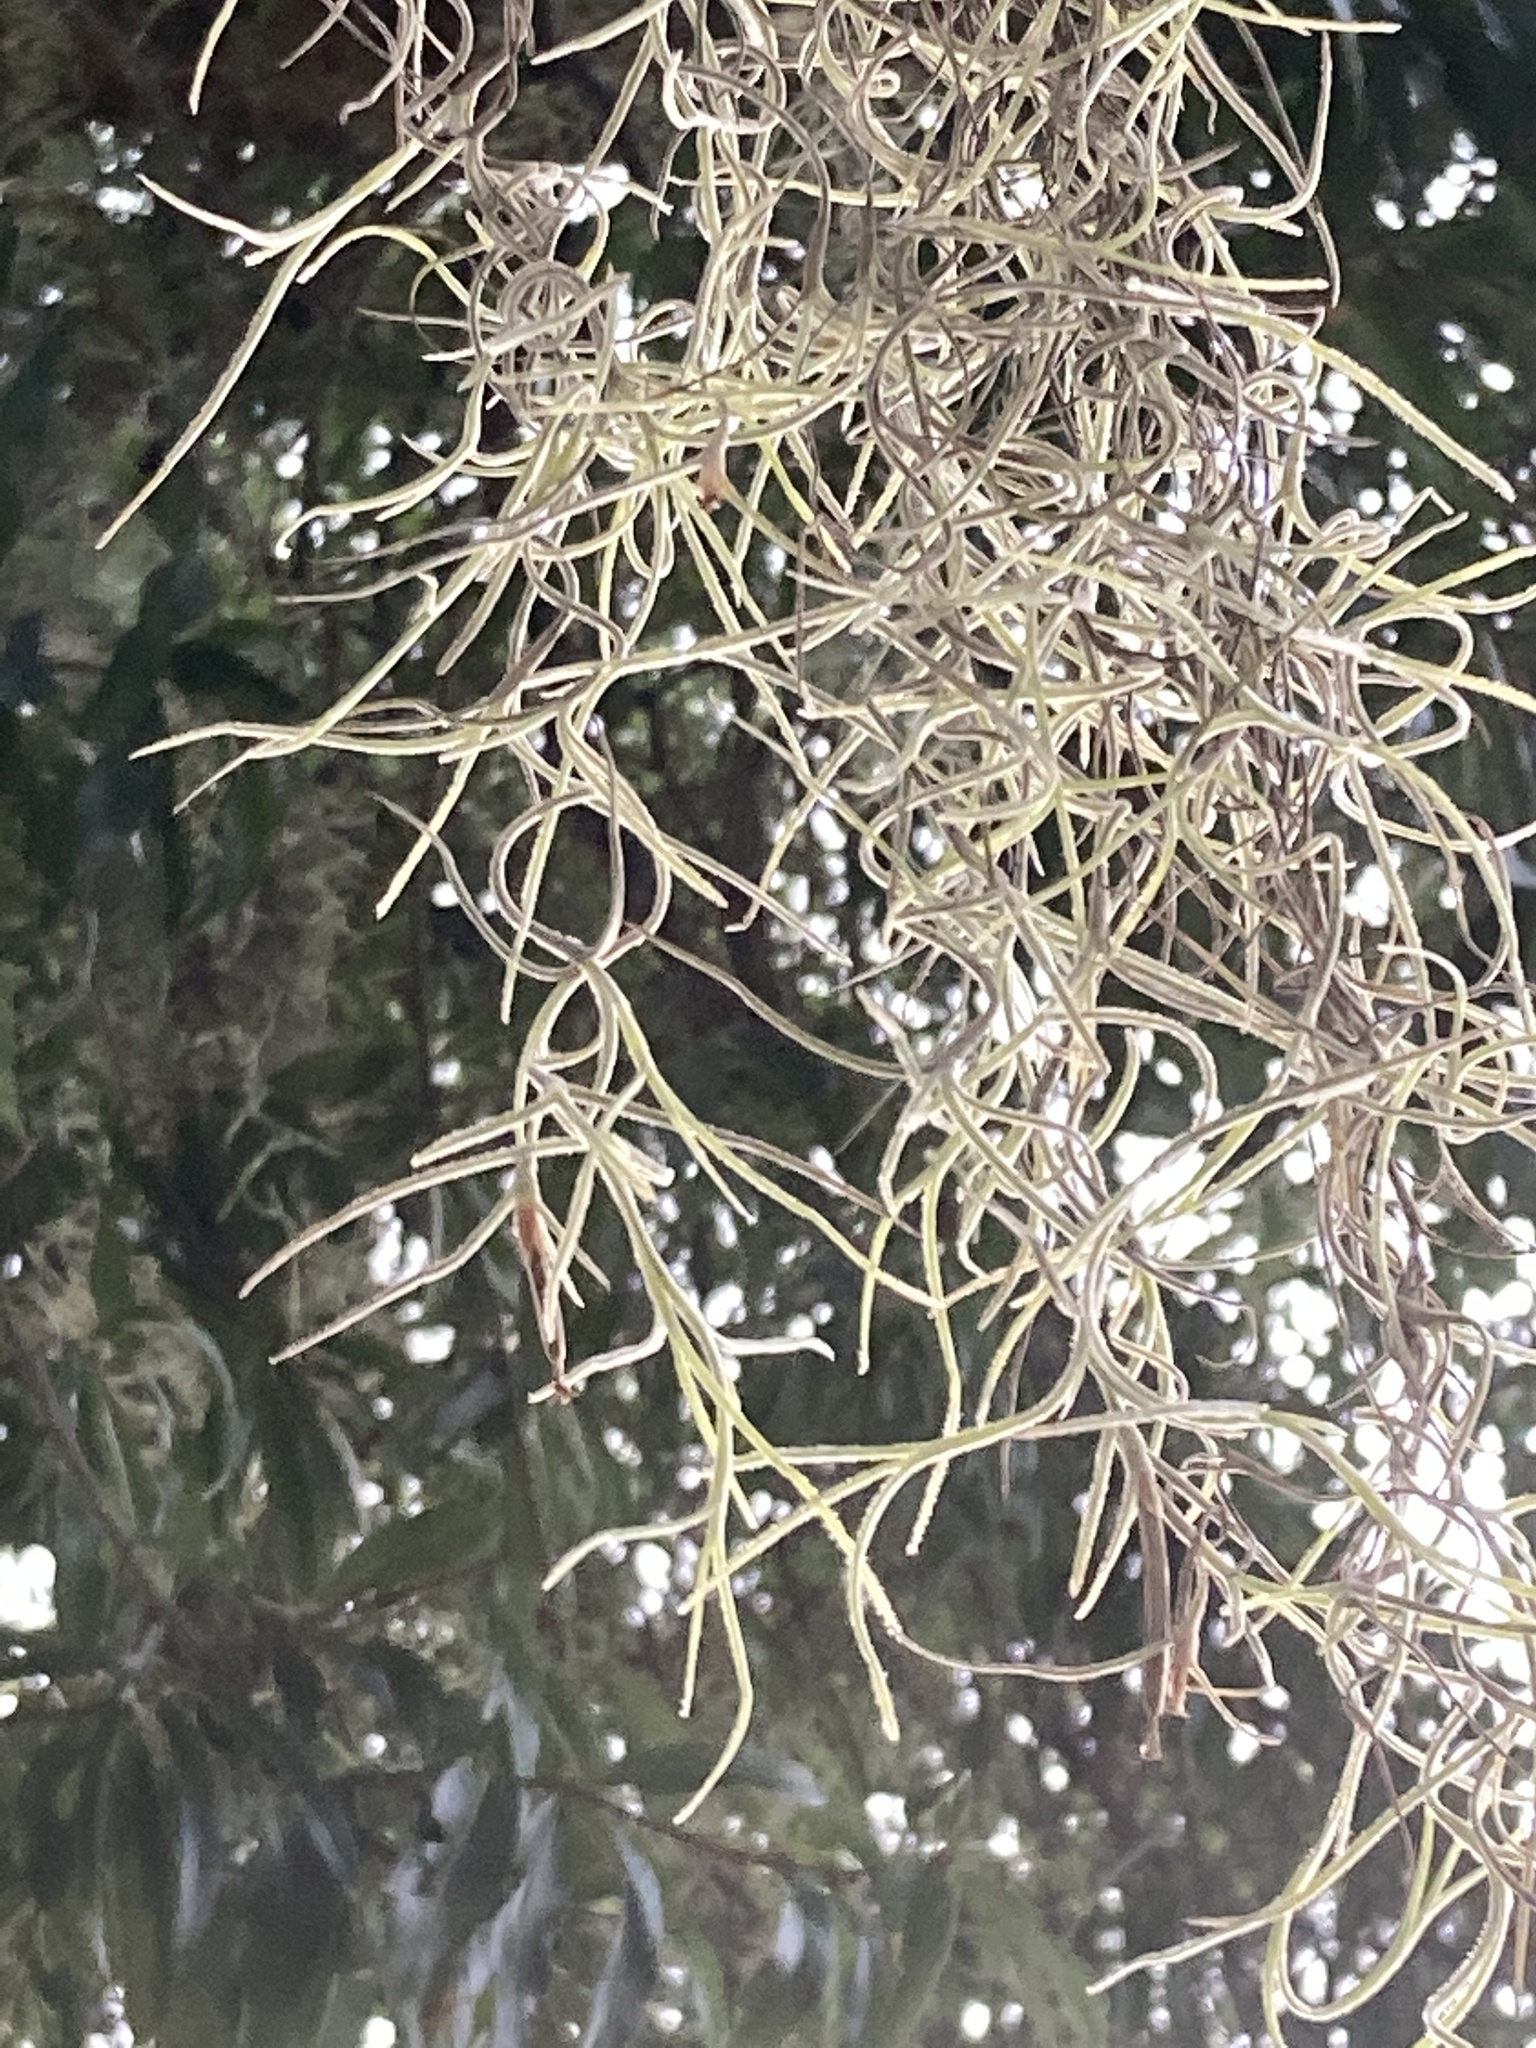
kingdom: Plantae
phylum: Tracheophyta
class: Liliopsida
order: Poales
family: Bromeliaceae
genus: Tillandsia
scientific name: Tillandsia usneoides
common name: Spanish moss
